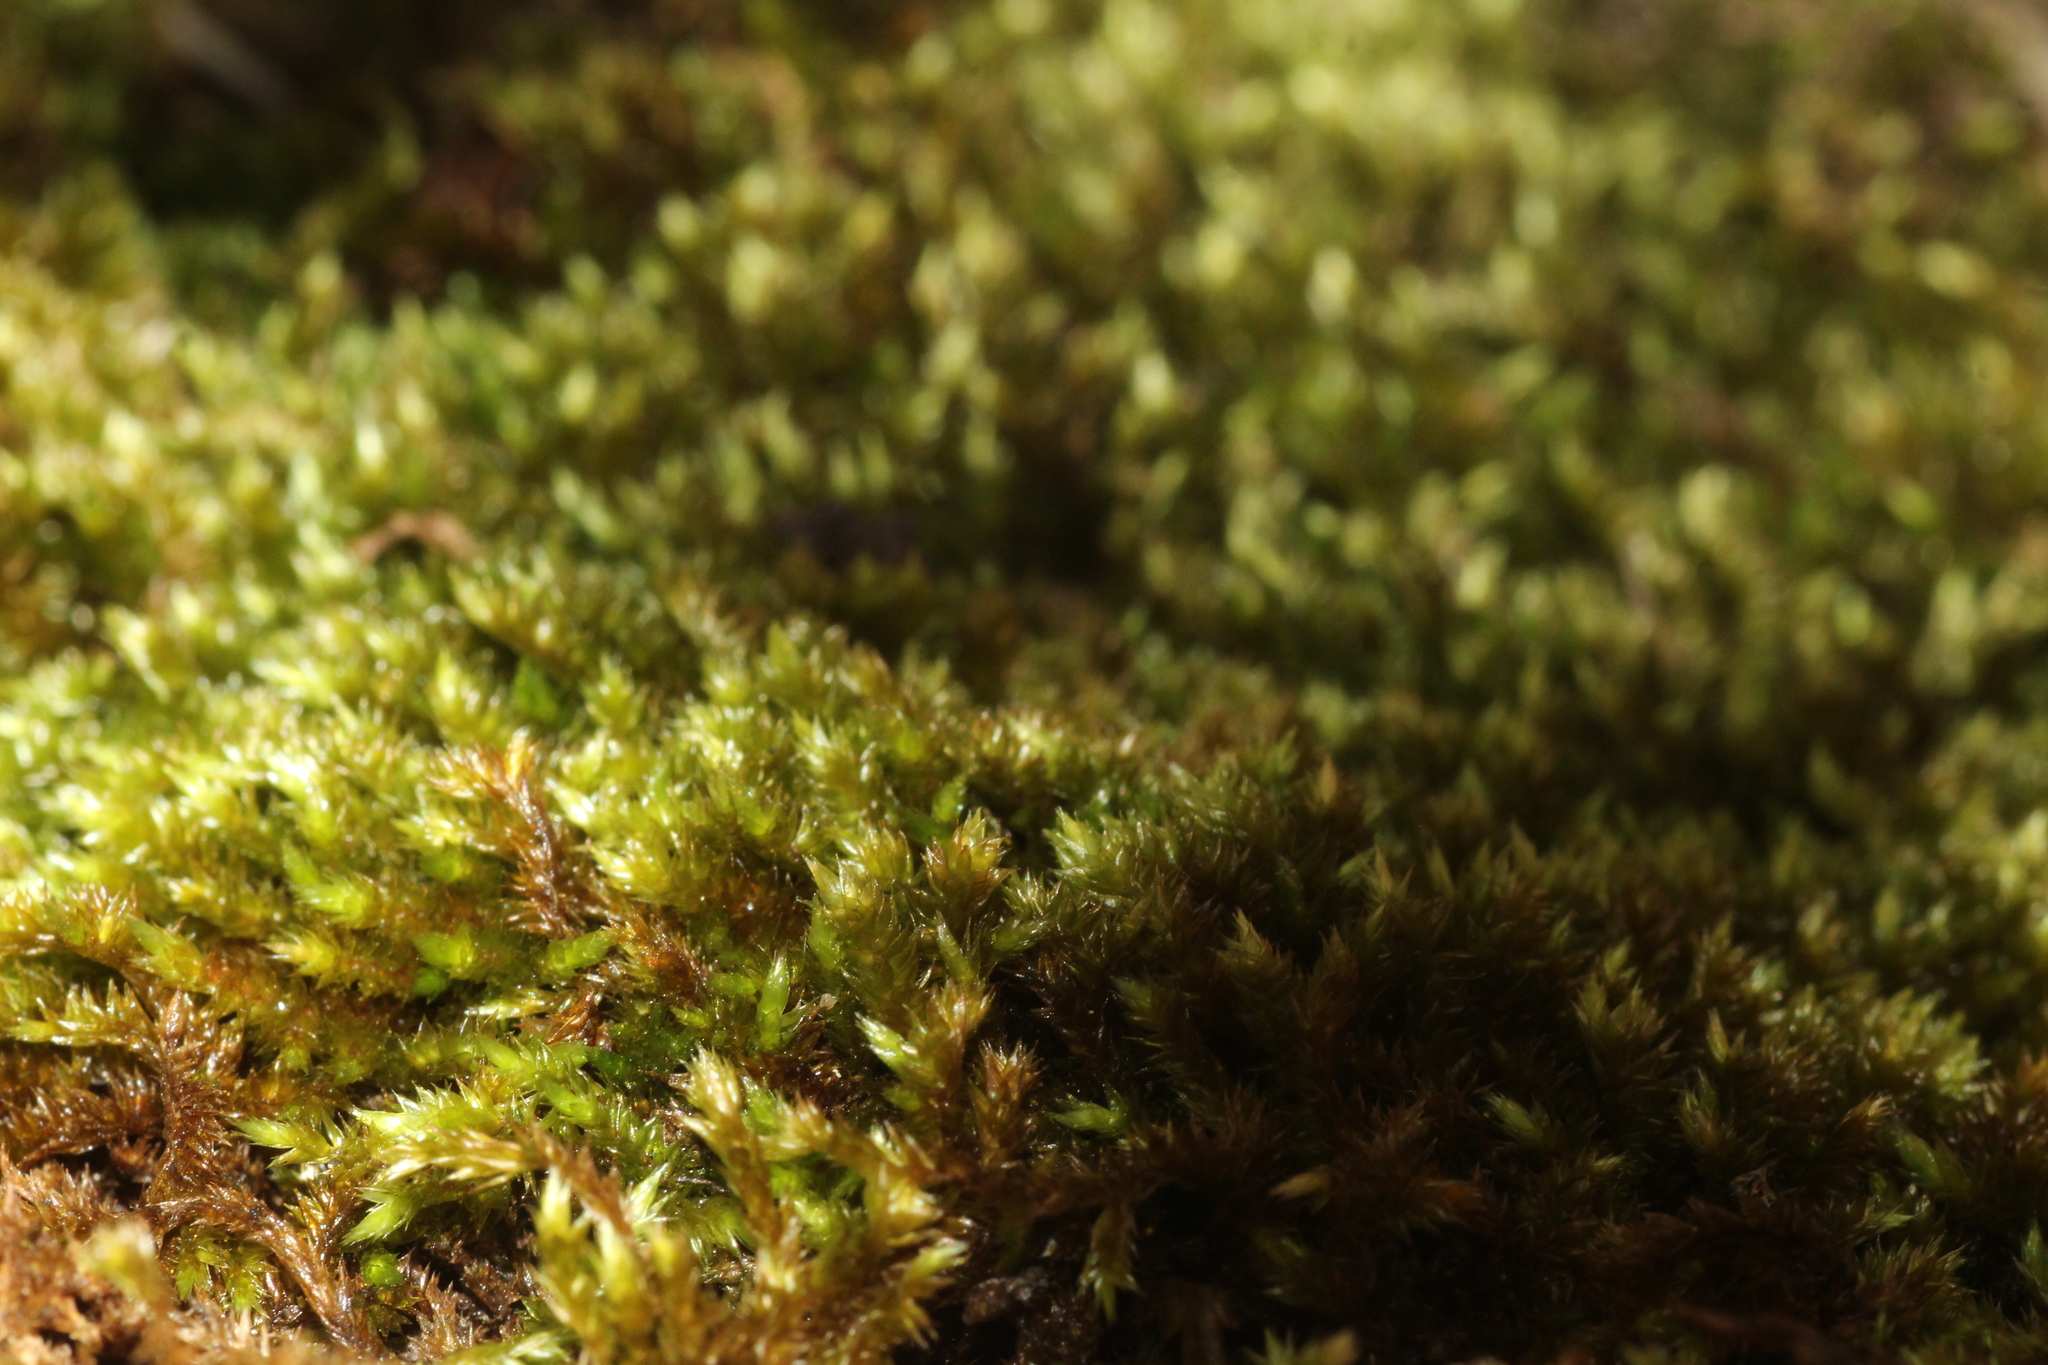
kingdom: Plantae
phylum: Bryophyta
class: Bryopsida
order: Hypnales
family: Sematophyllaceae
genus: Sematophyllum
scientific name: Sematophyllum homomallum
